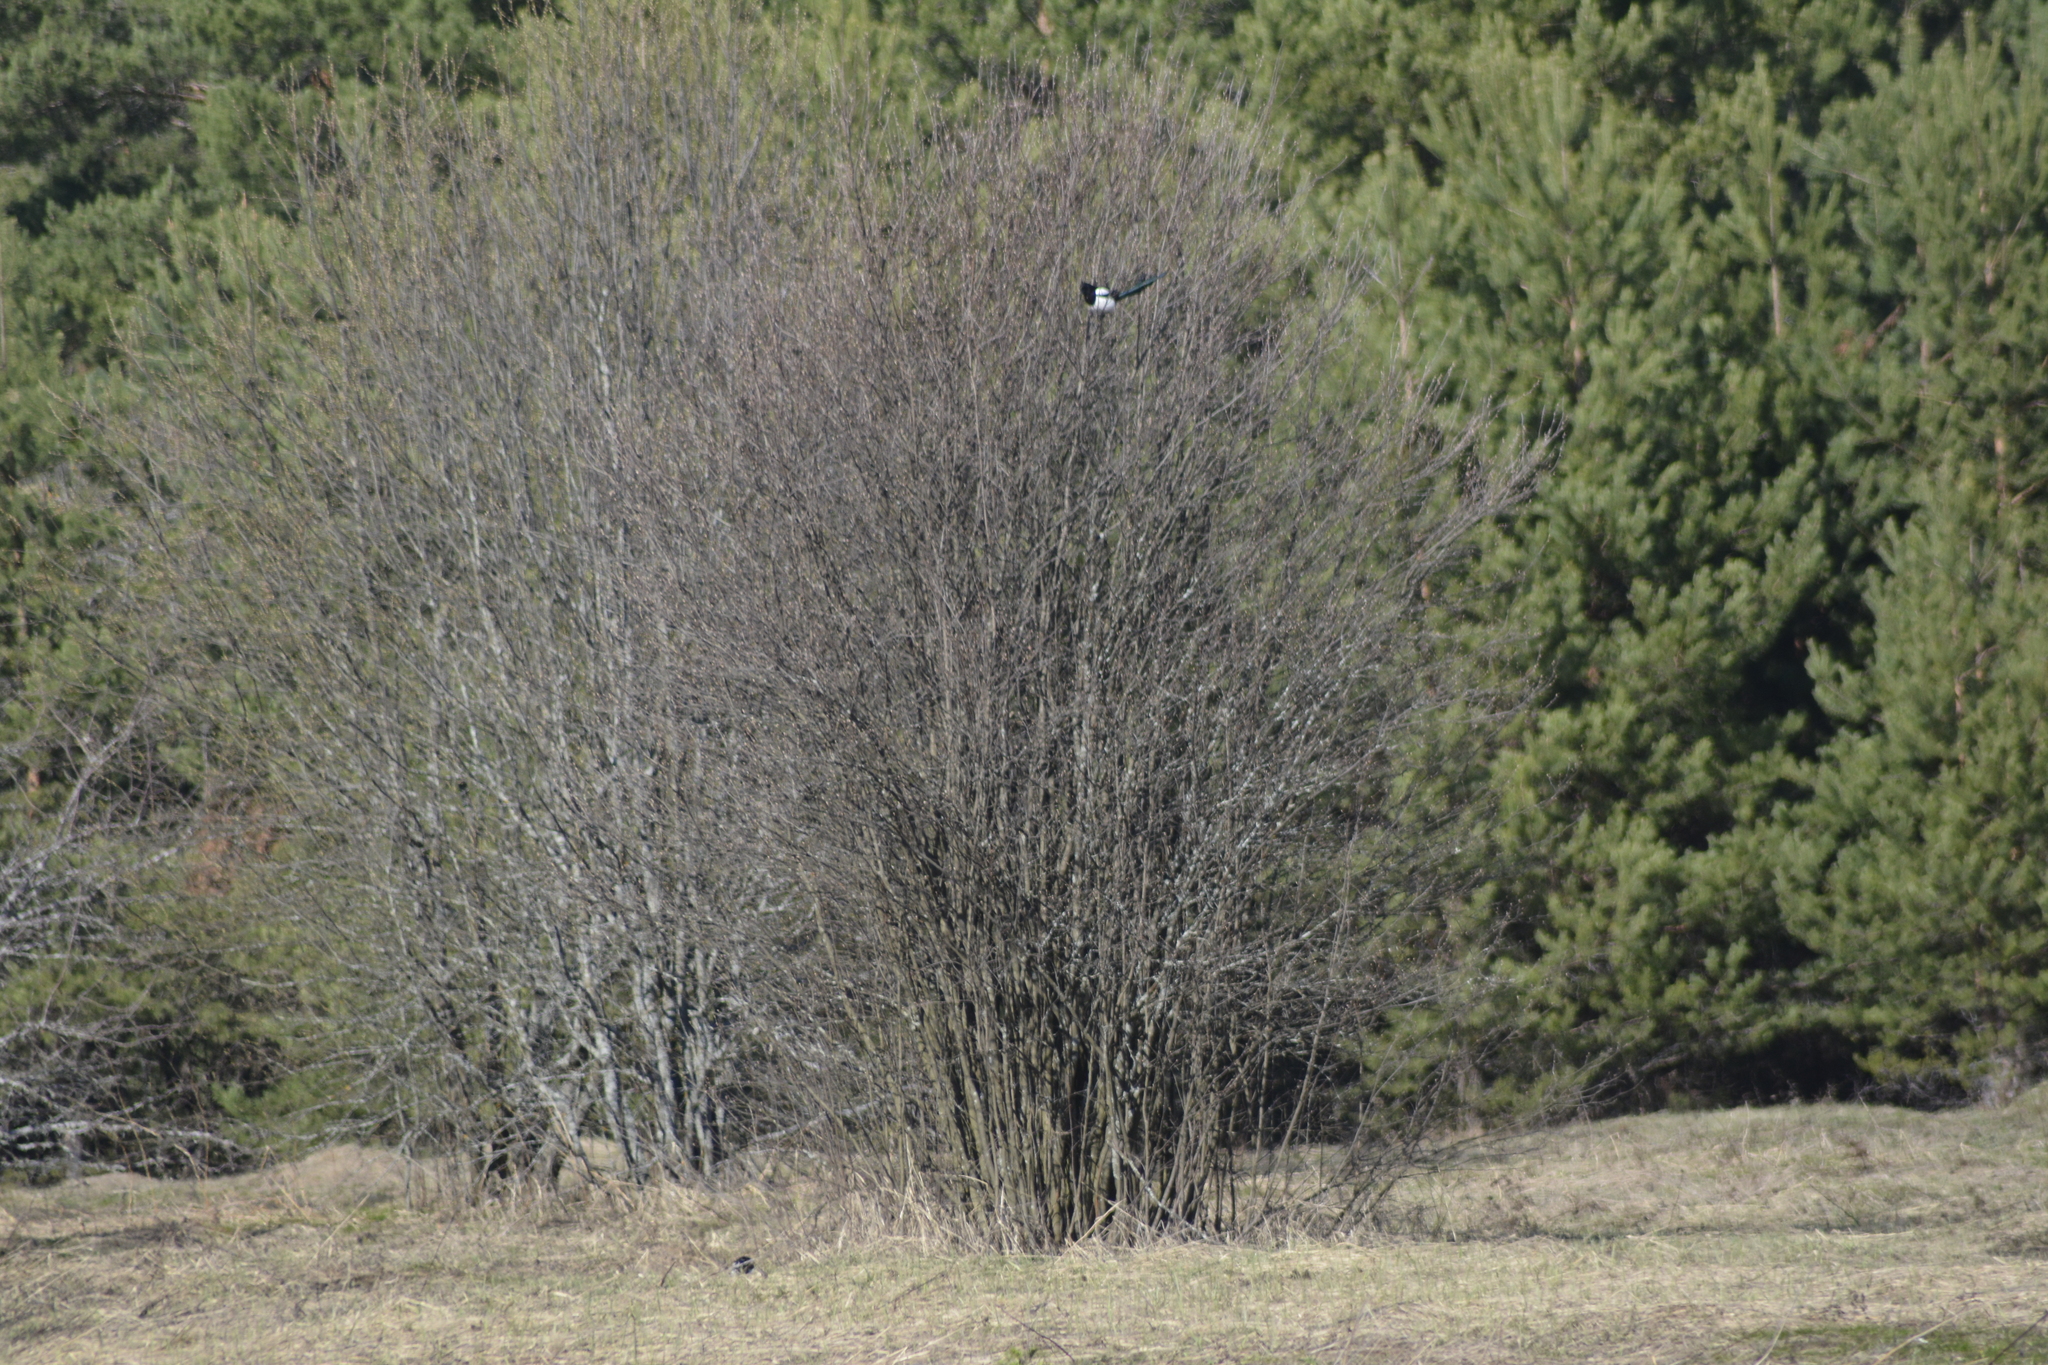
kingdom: Animalia
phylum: Chordata
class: Aves
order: Passeriformes
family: Corvidae
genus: Pica
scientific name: Pica pica
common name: Eurasian magpie
